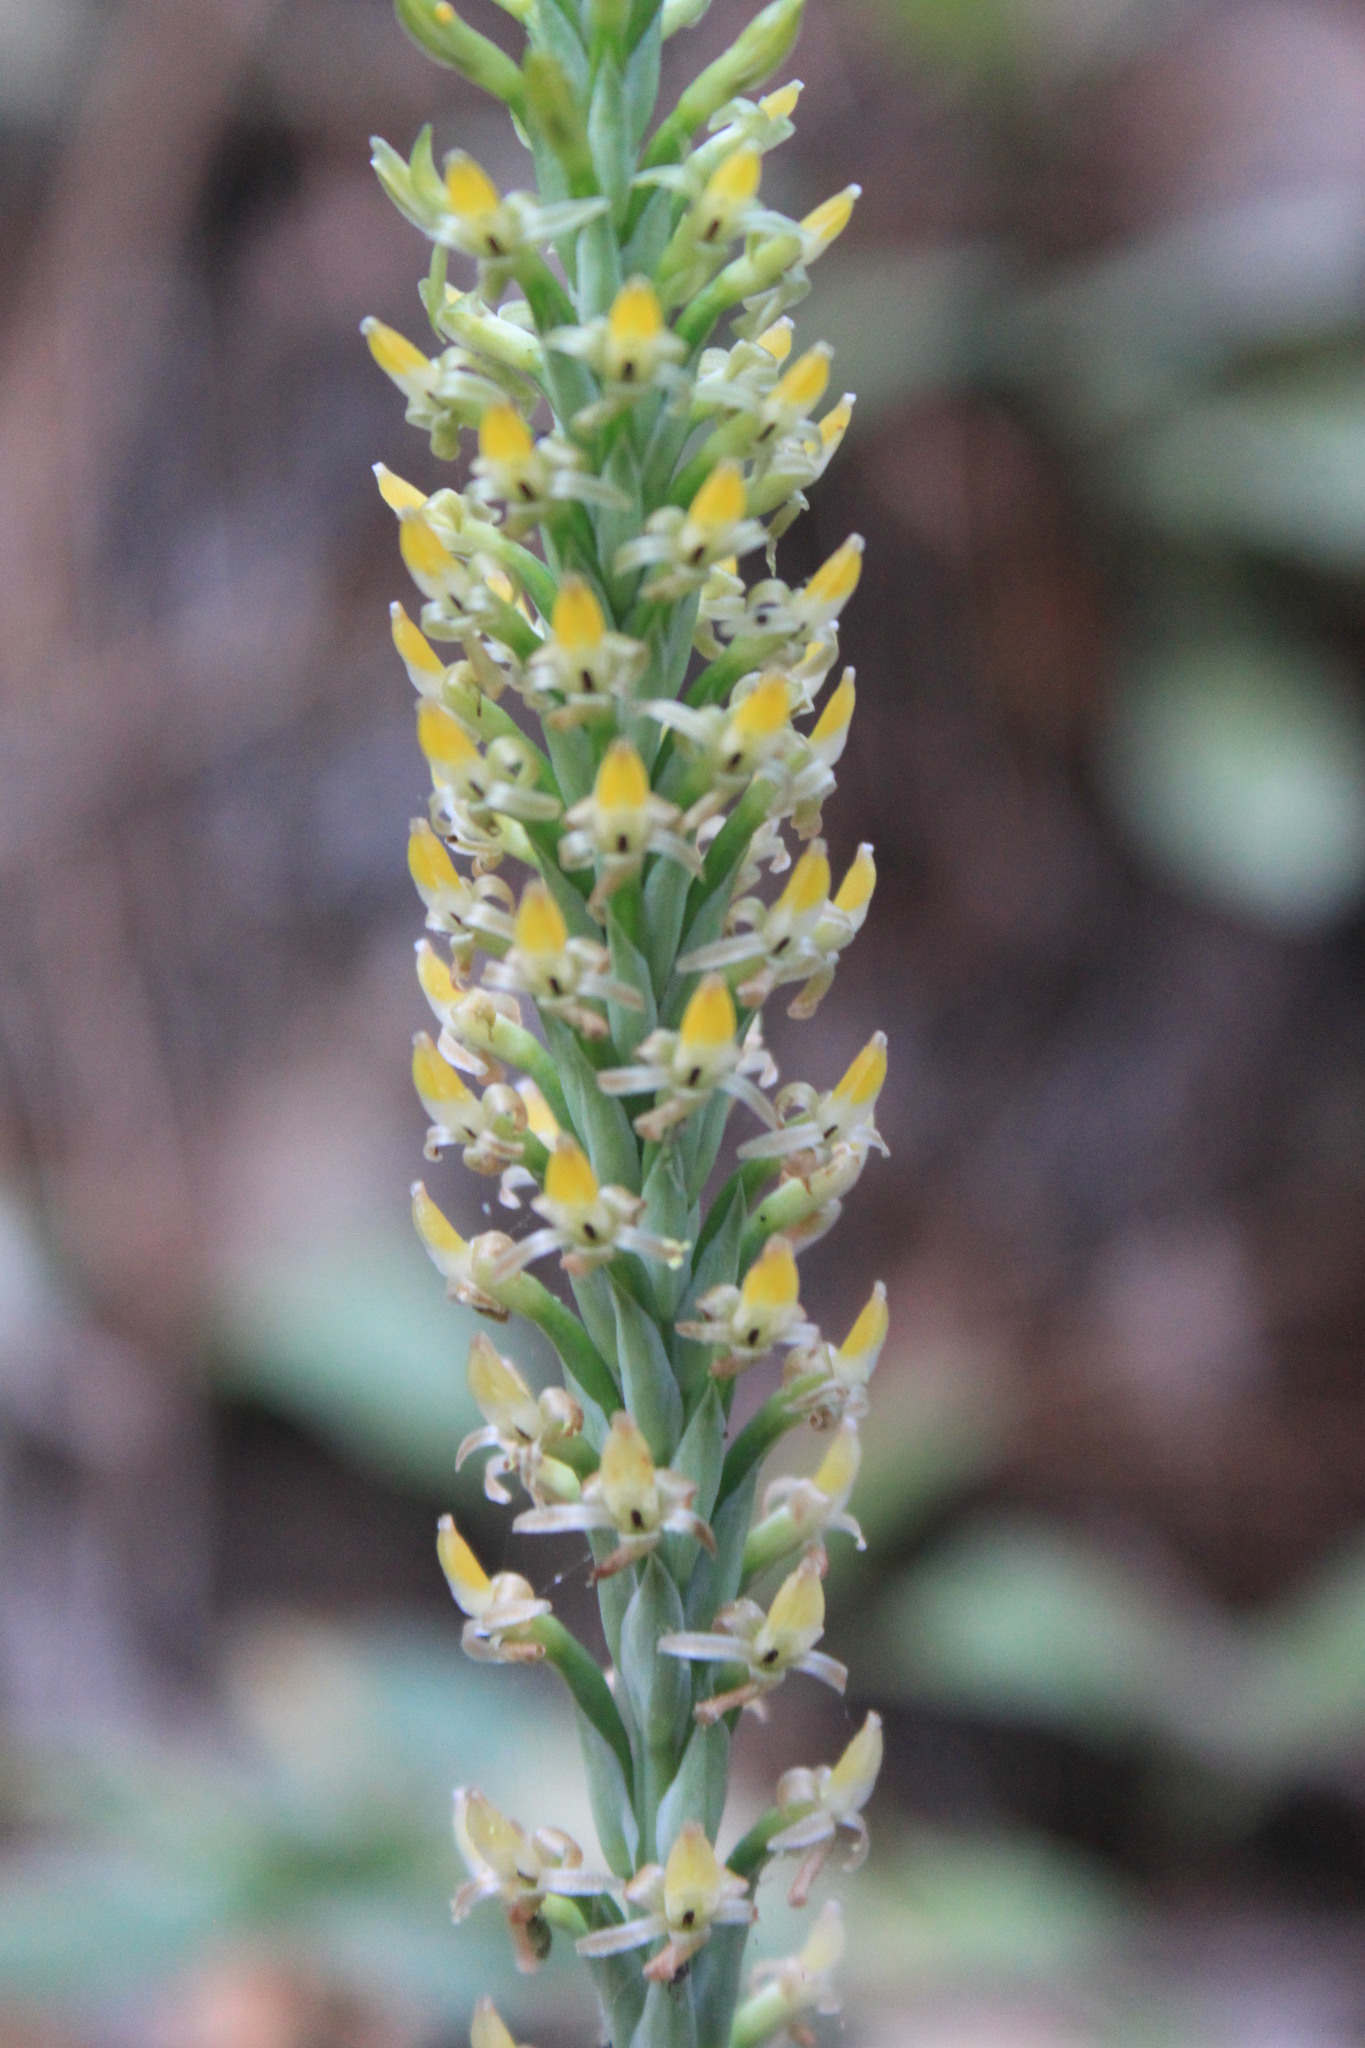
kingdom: Plantae
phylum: Tracheophyta
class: Liliopsida
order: Asparagales
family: Orchidaceae
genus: Galeoglossum
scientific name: Galeoglossum tubulosum
